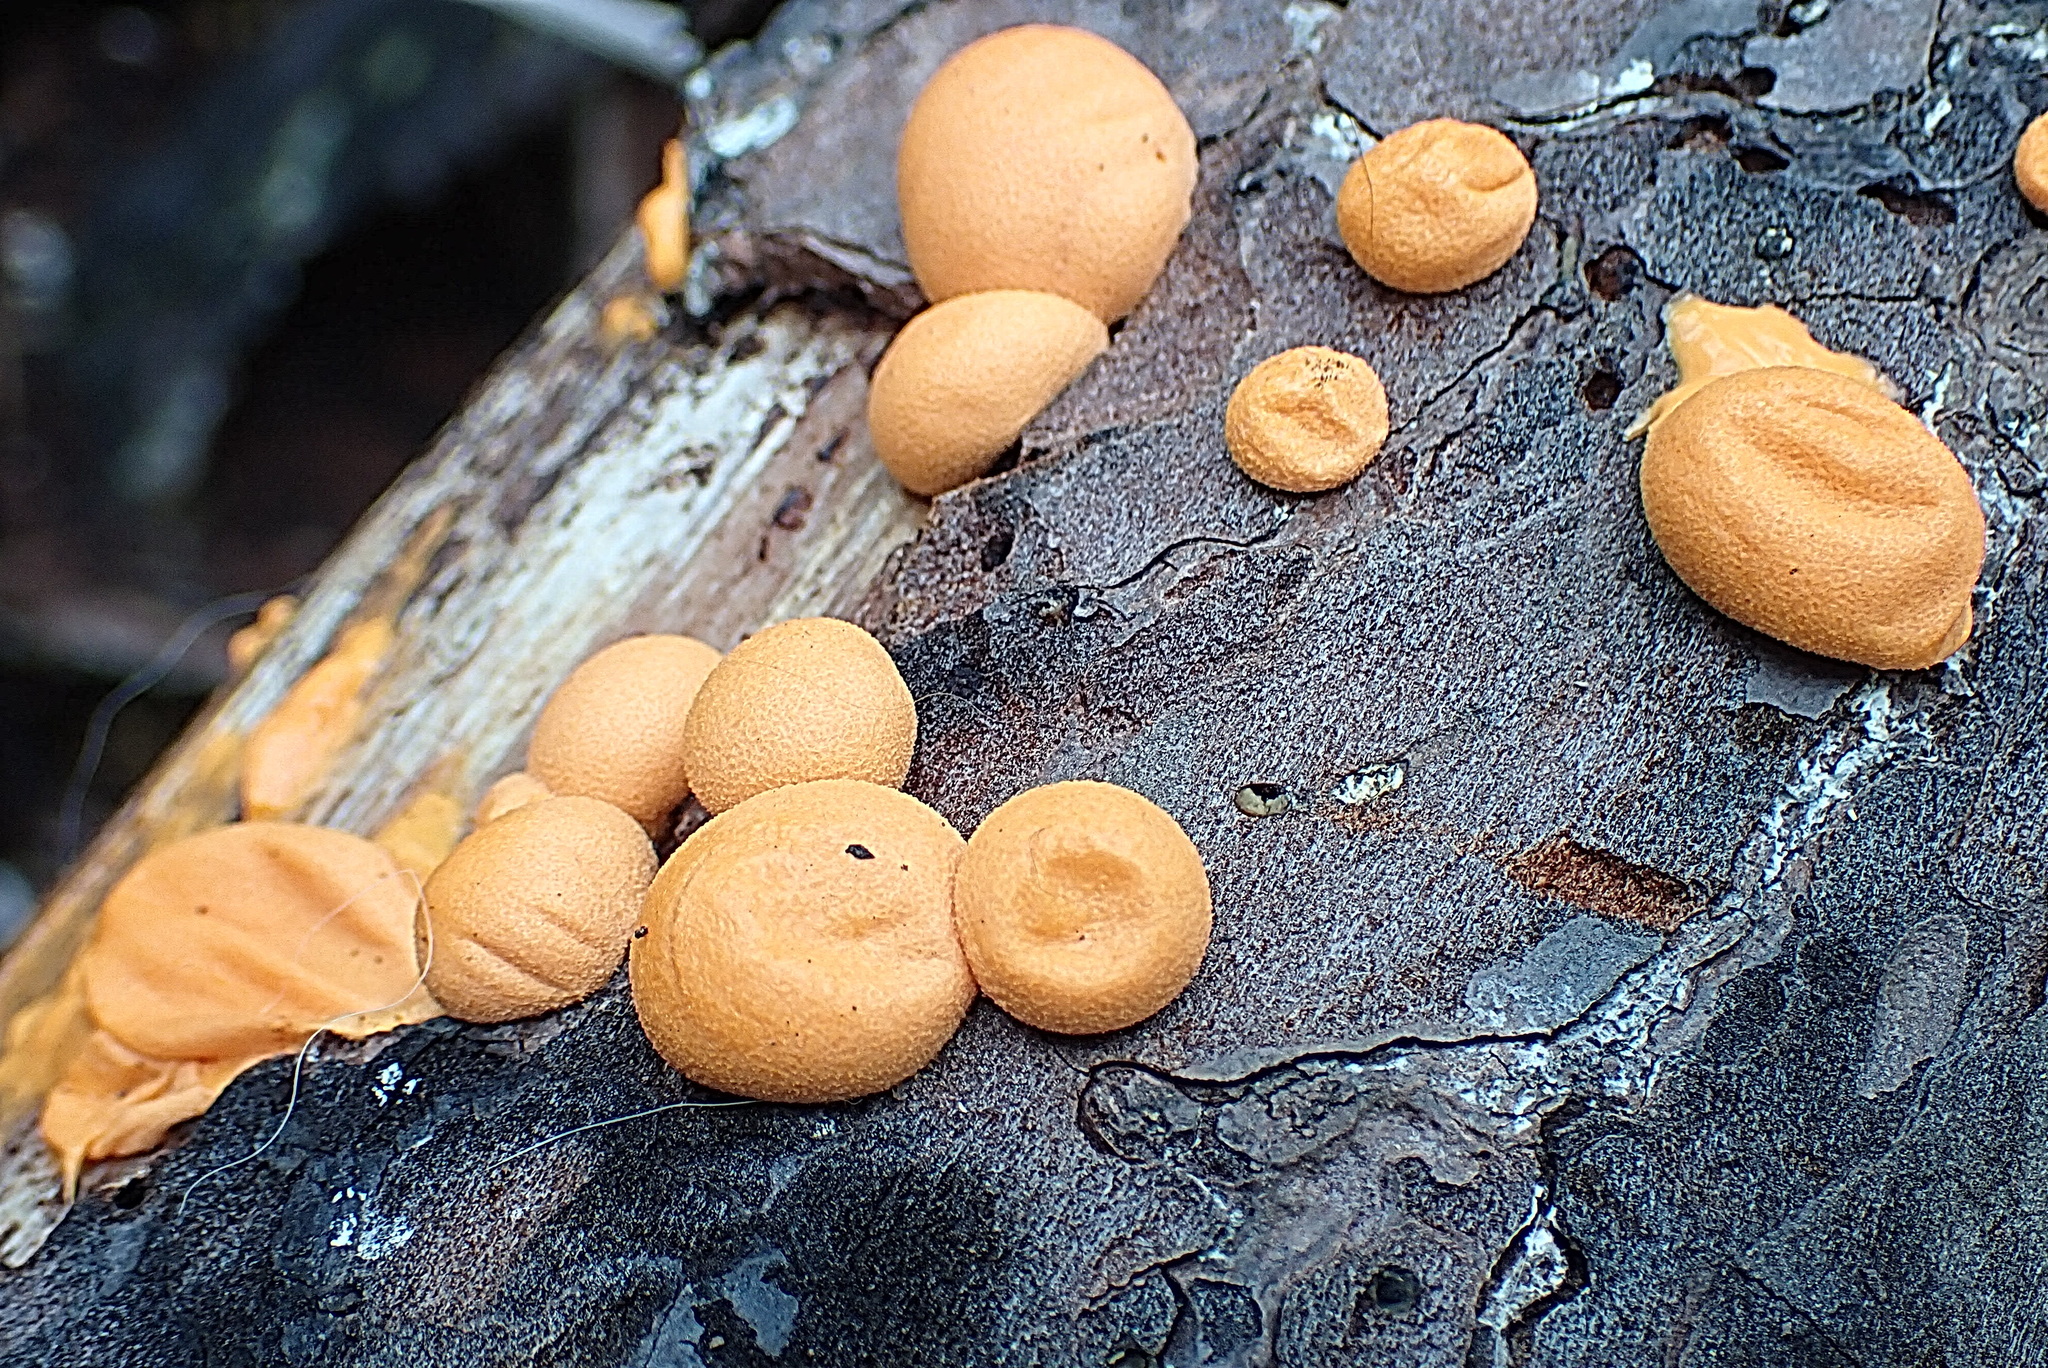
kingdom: Protozoa
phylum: Mycetozoa
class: Myxomycetes
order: Cribrariales
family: Tubiferaceae
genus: Lycogala
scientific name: Lycogala epidendrum
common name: Wolf's milk
